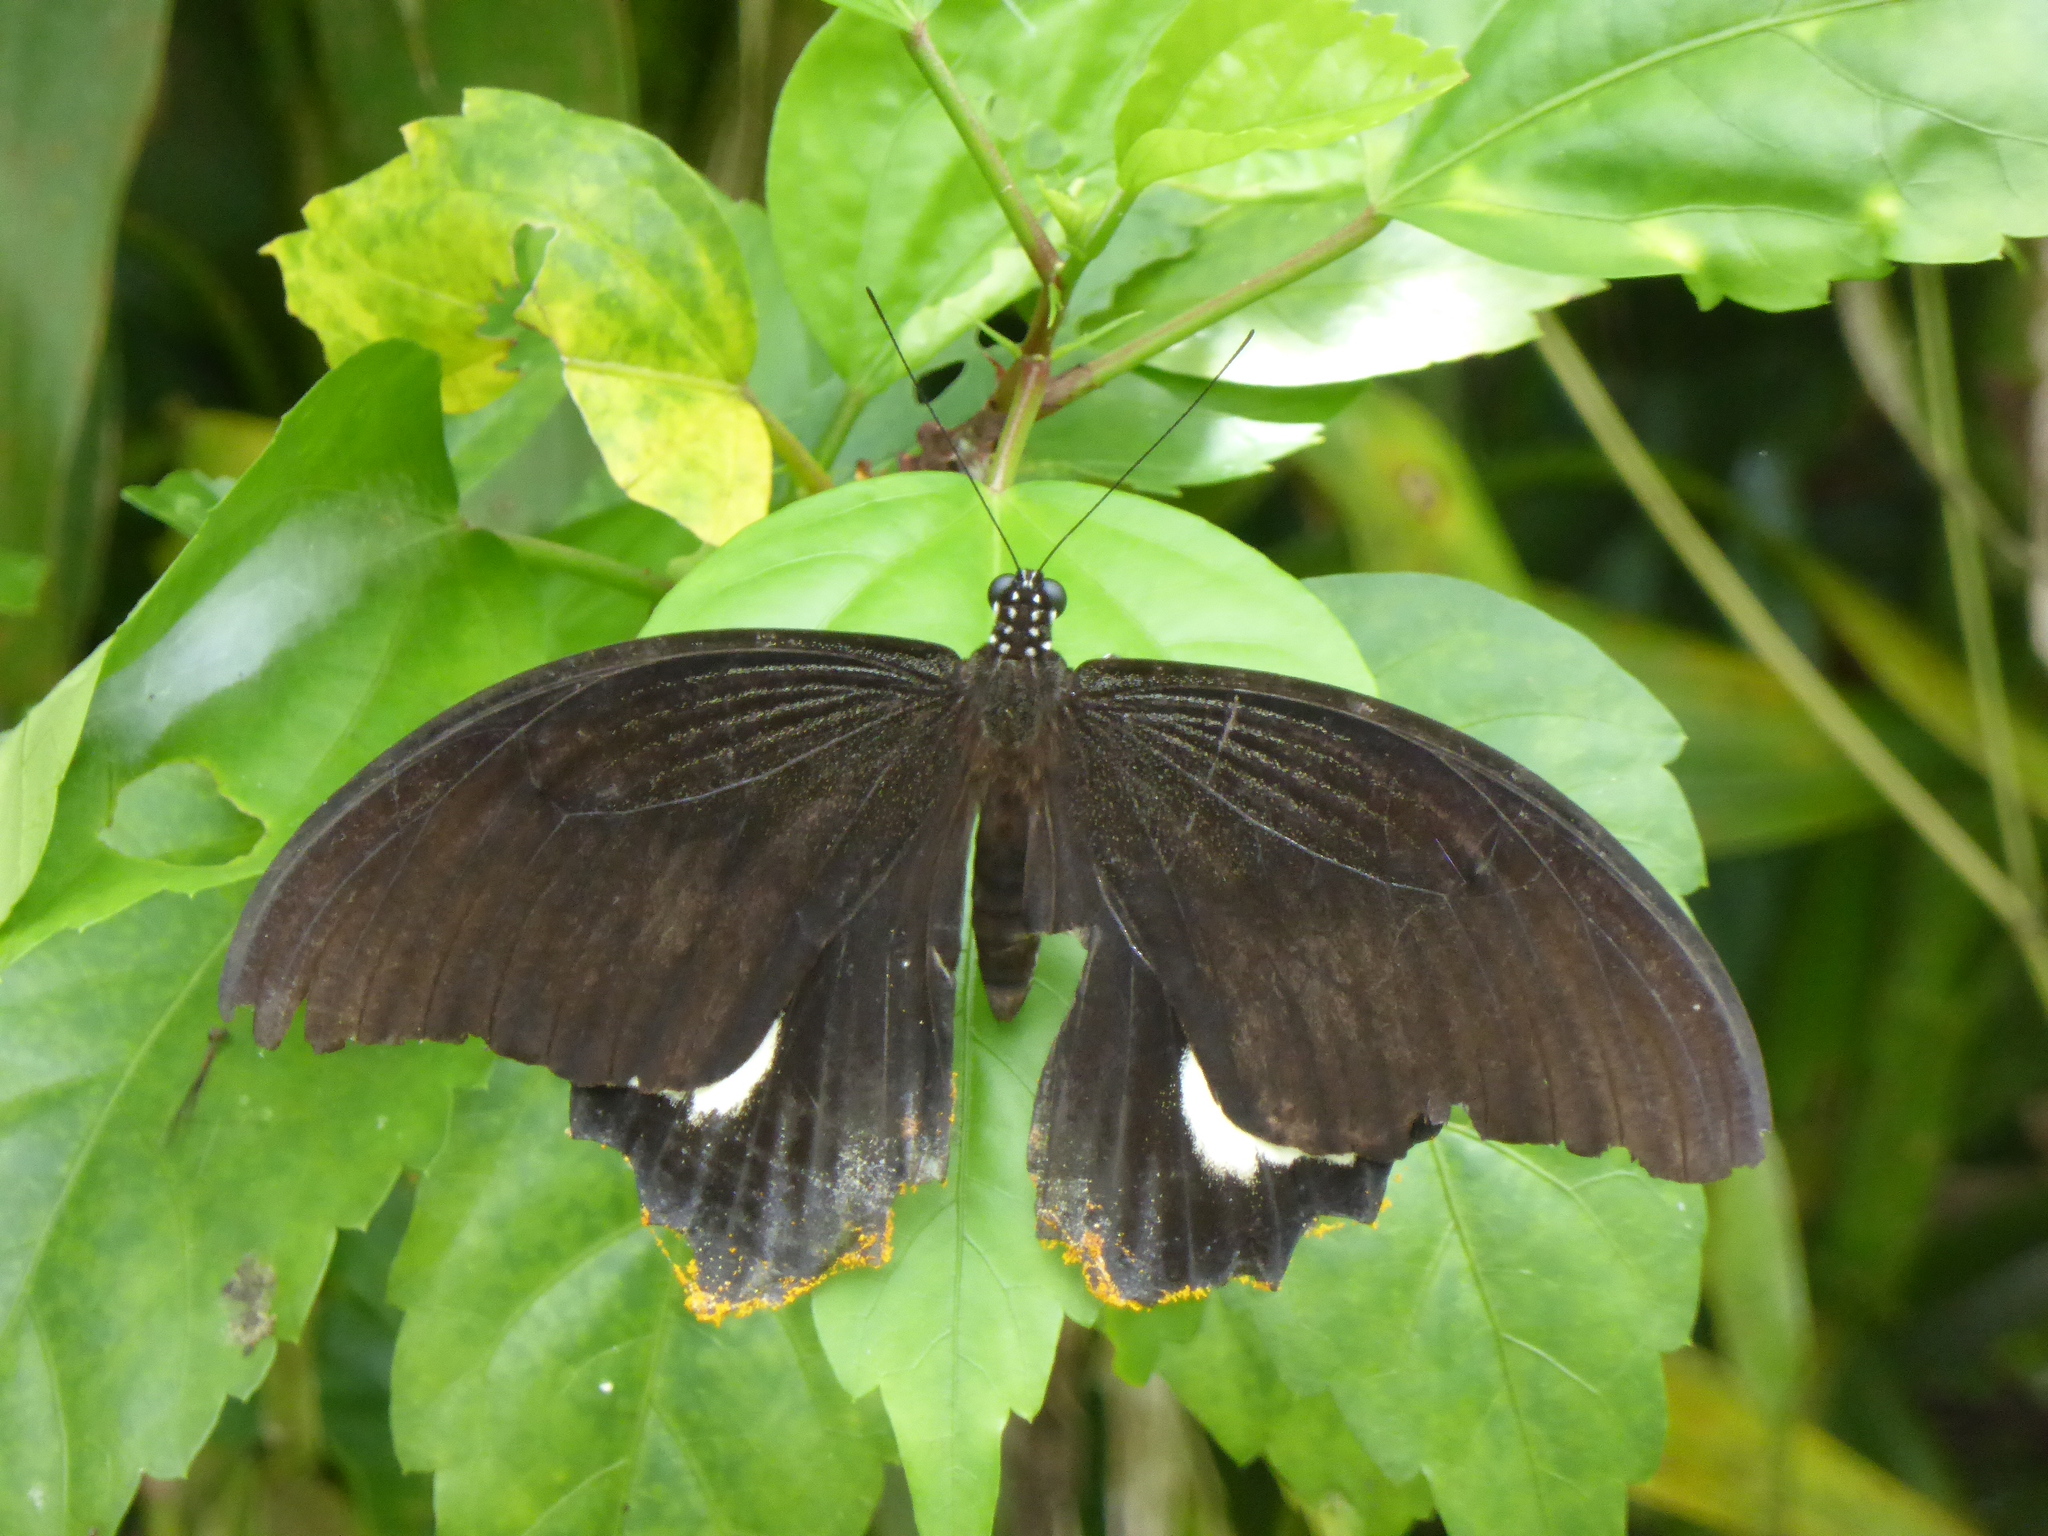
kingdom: Animalia
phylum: Arthropoda
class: Insecta
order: Lepidoptera
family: Papilionidae
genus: Papilio
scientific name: Papilio prexaspes
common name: Blue helen swallowtail
